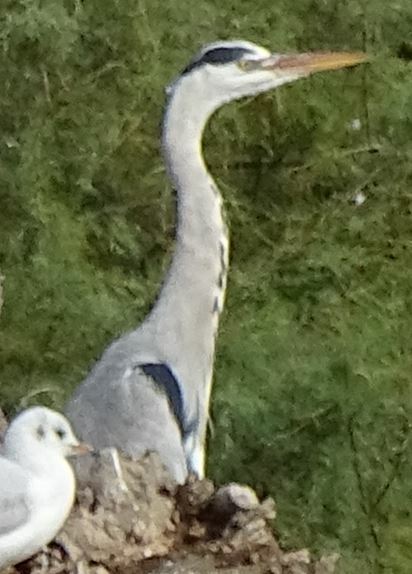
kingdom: Animalia
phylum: Chordata
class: Aves
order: Pelecaniformes
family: Ardeidae
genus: Ardea
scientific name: Ardea cinerea
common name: Grey heron
